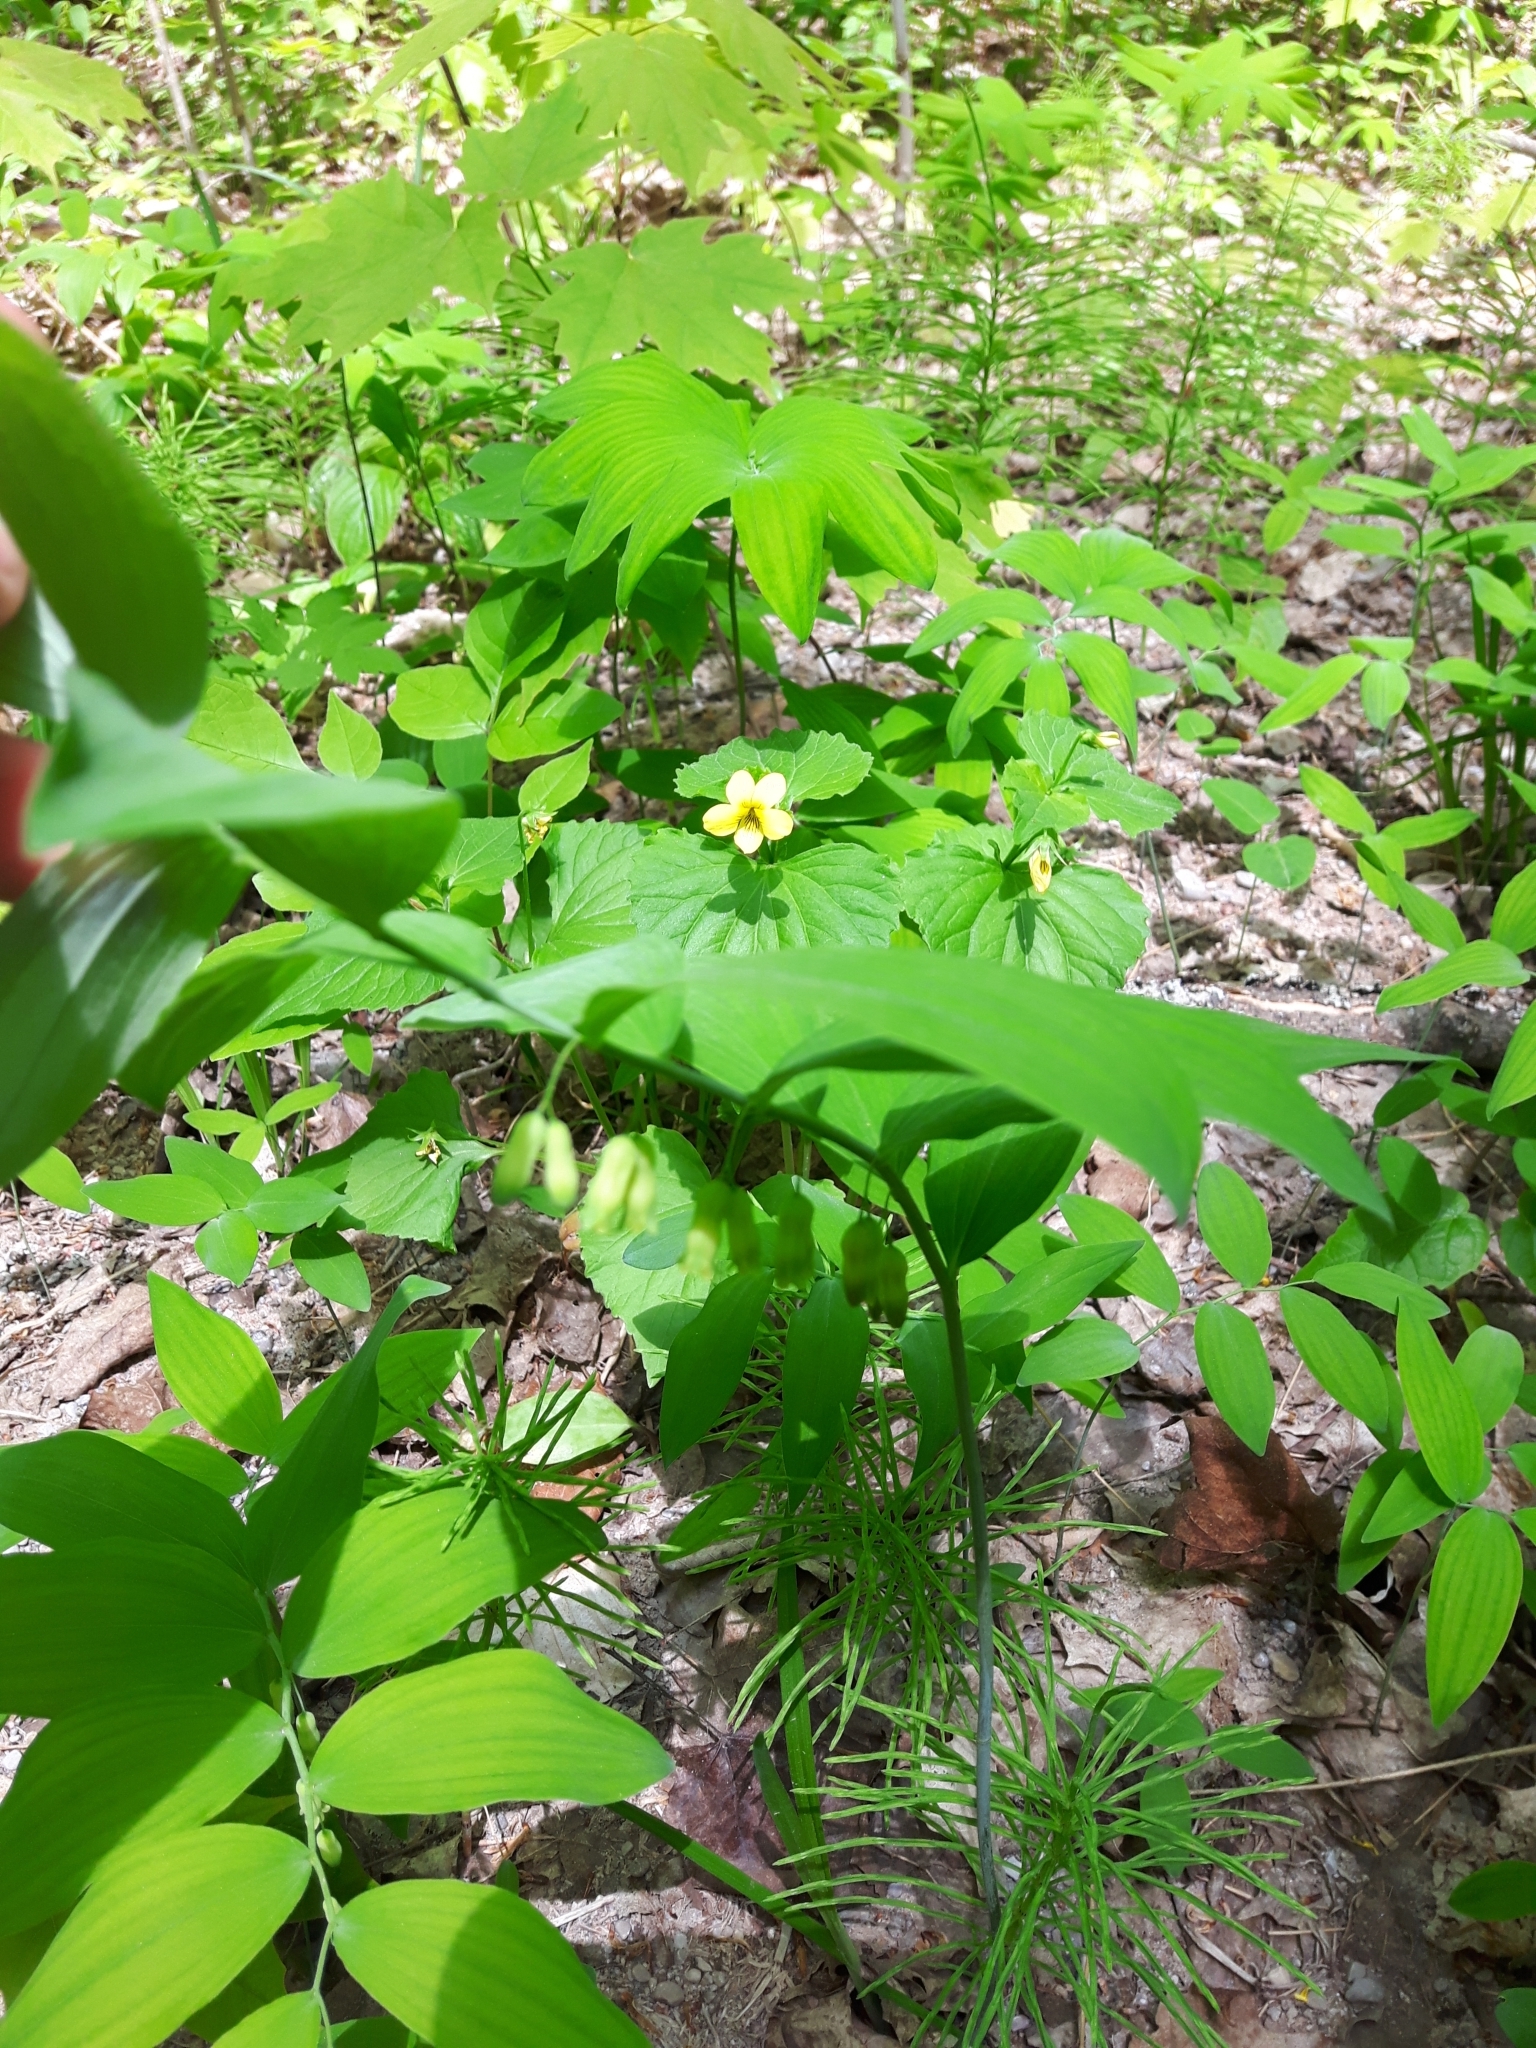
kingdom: Plantae
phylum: Tracheophyta
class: Liliopsida
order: Asparagales
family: Asparagaceae
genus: Polygonatum
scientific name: Polygonatum pubescens
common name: Downy solomon's seal
